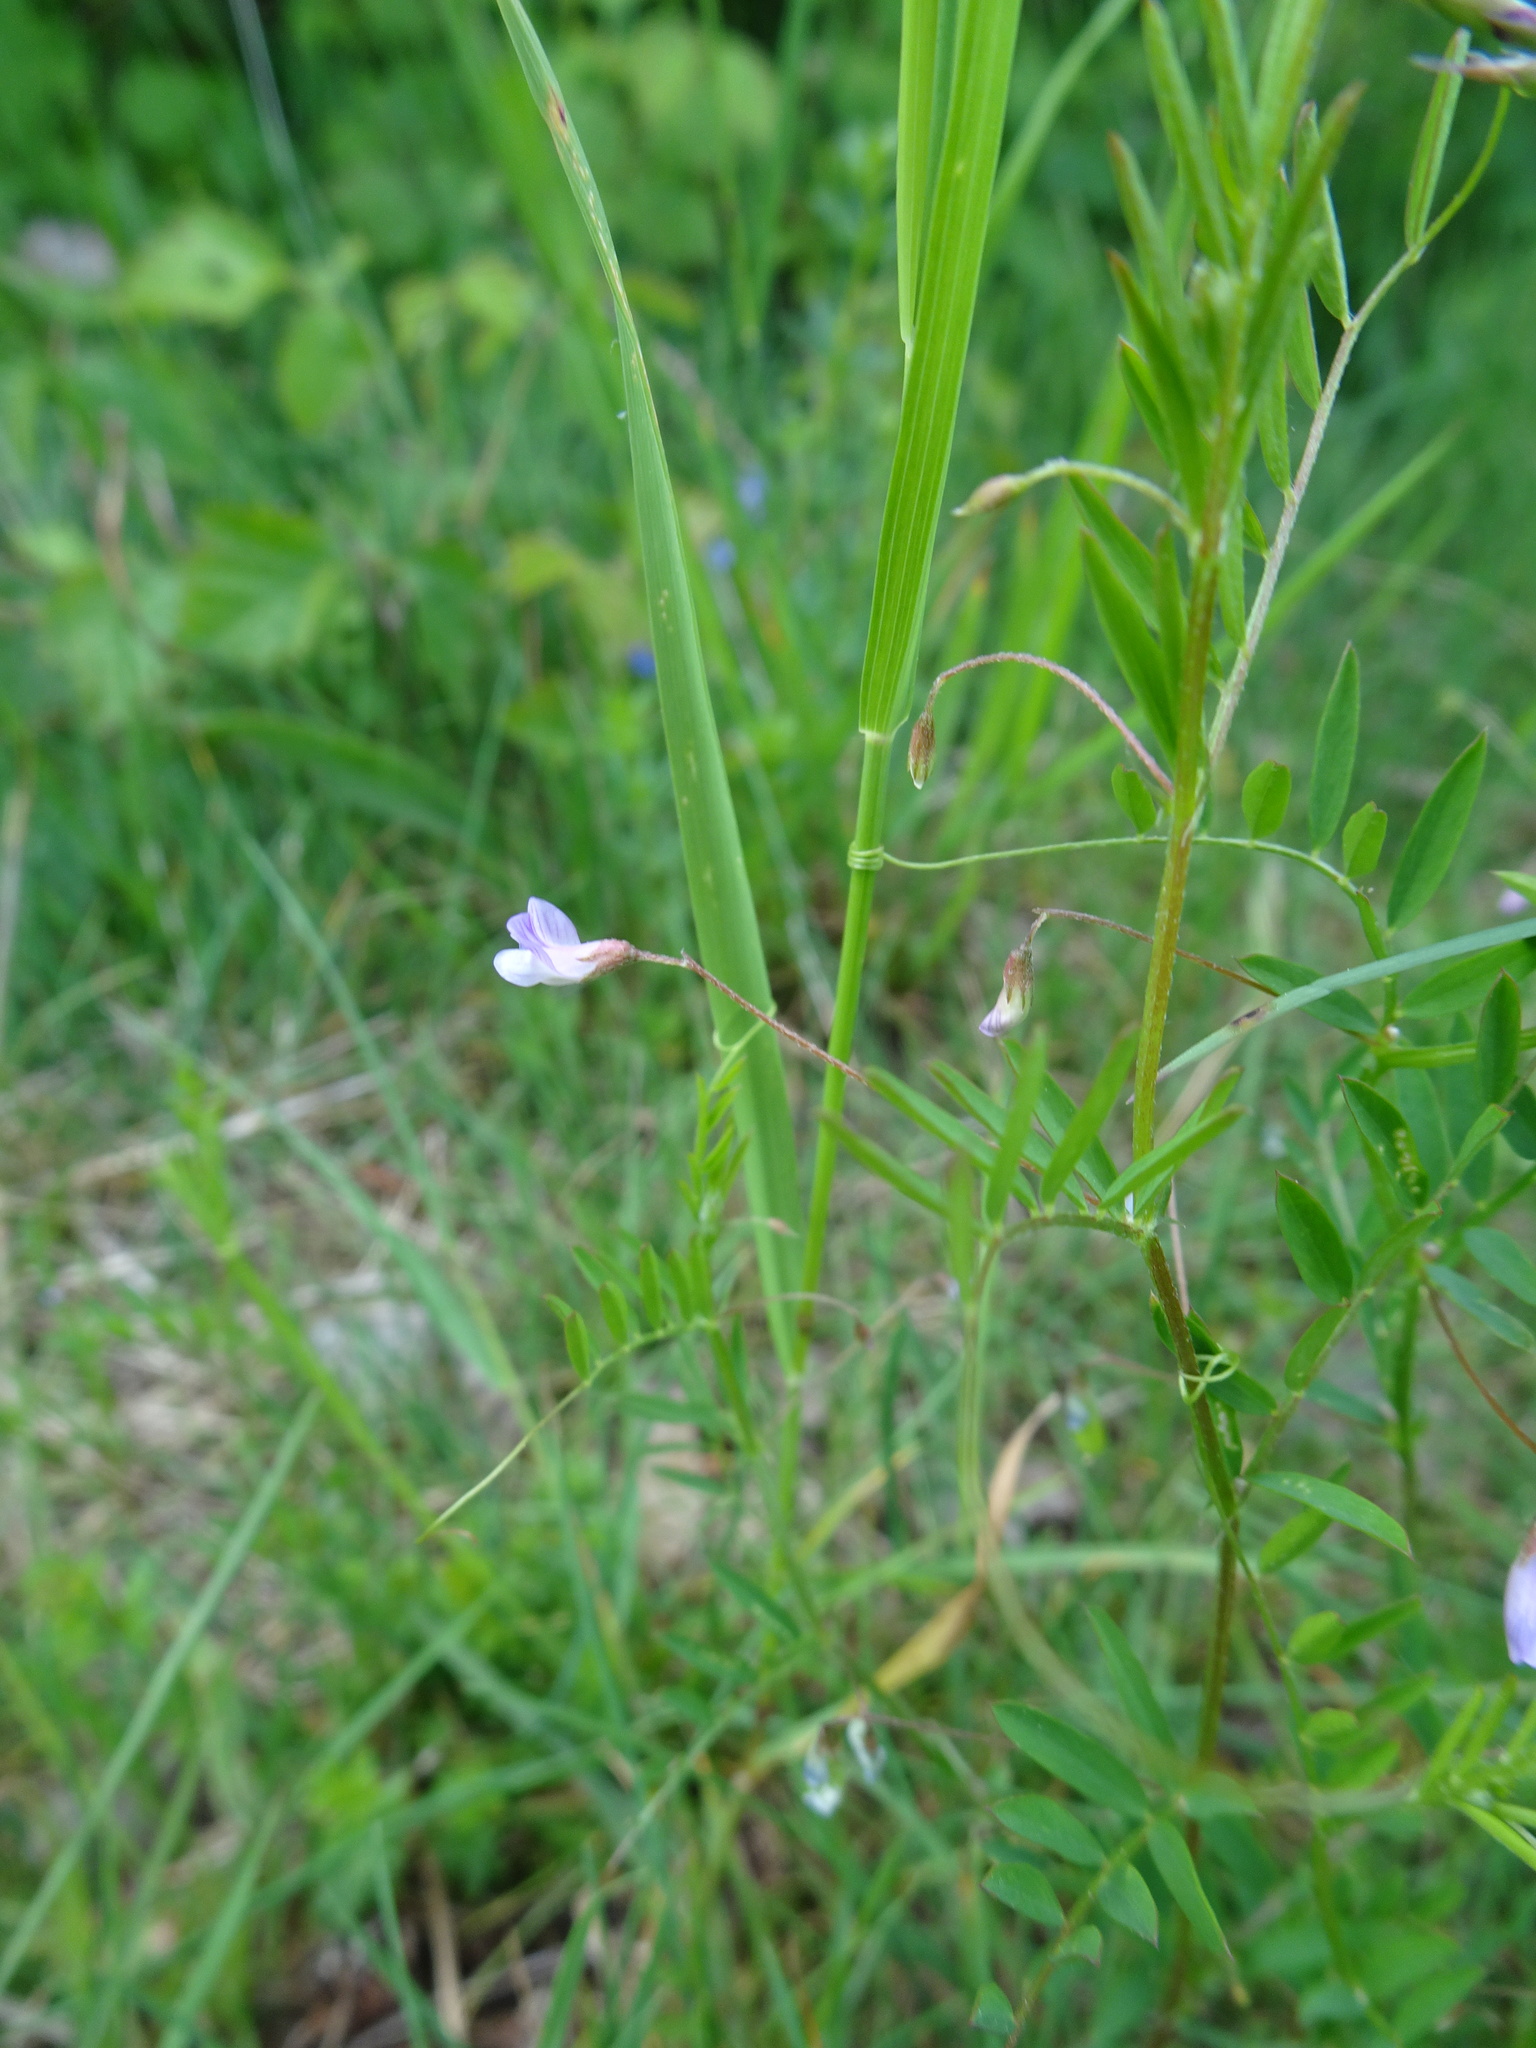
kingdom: Plantae
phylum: Tracheophyta
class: Magnoliopsida
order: Fabales
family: Fabaceae
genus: Vicia
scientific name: Vicia tetrasperma
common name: Smooth tare
